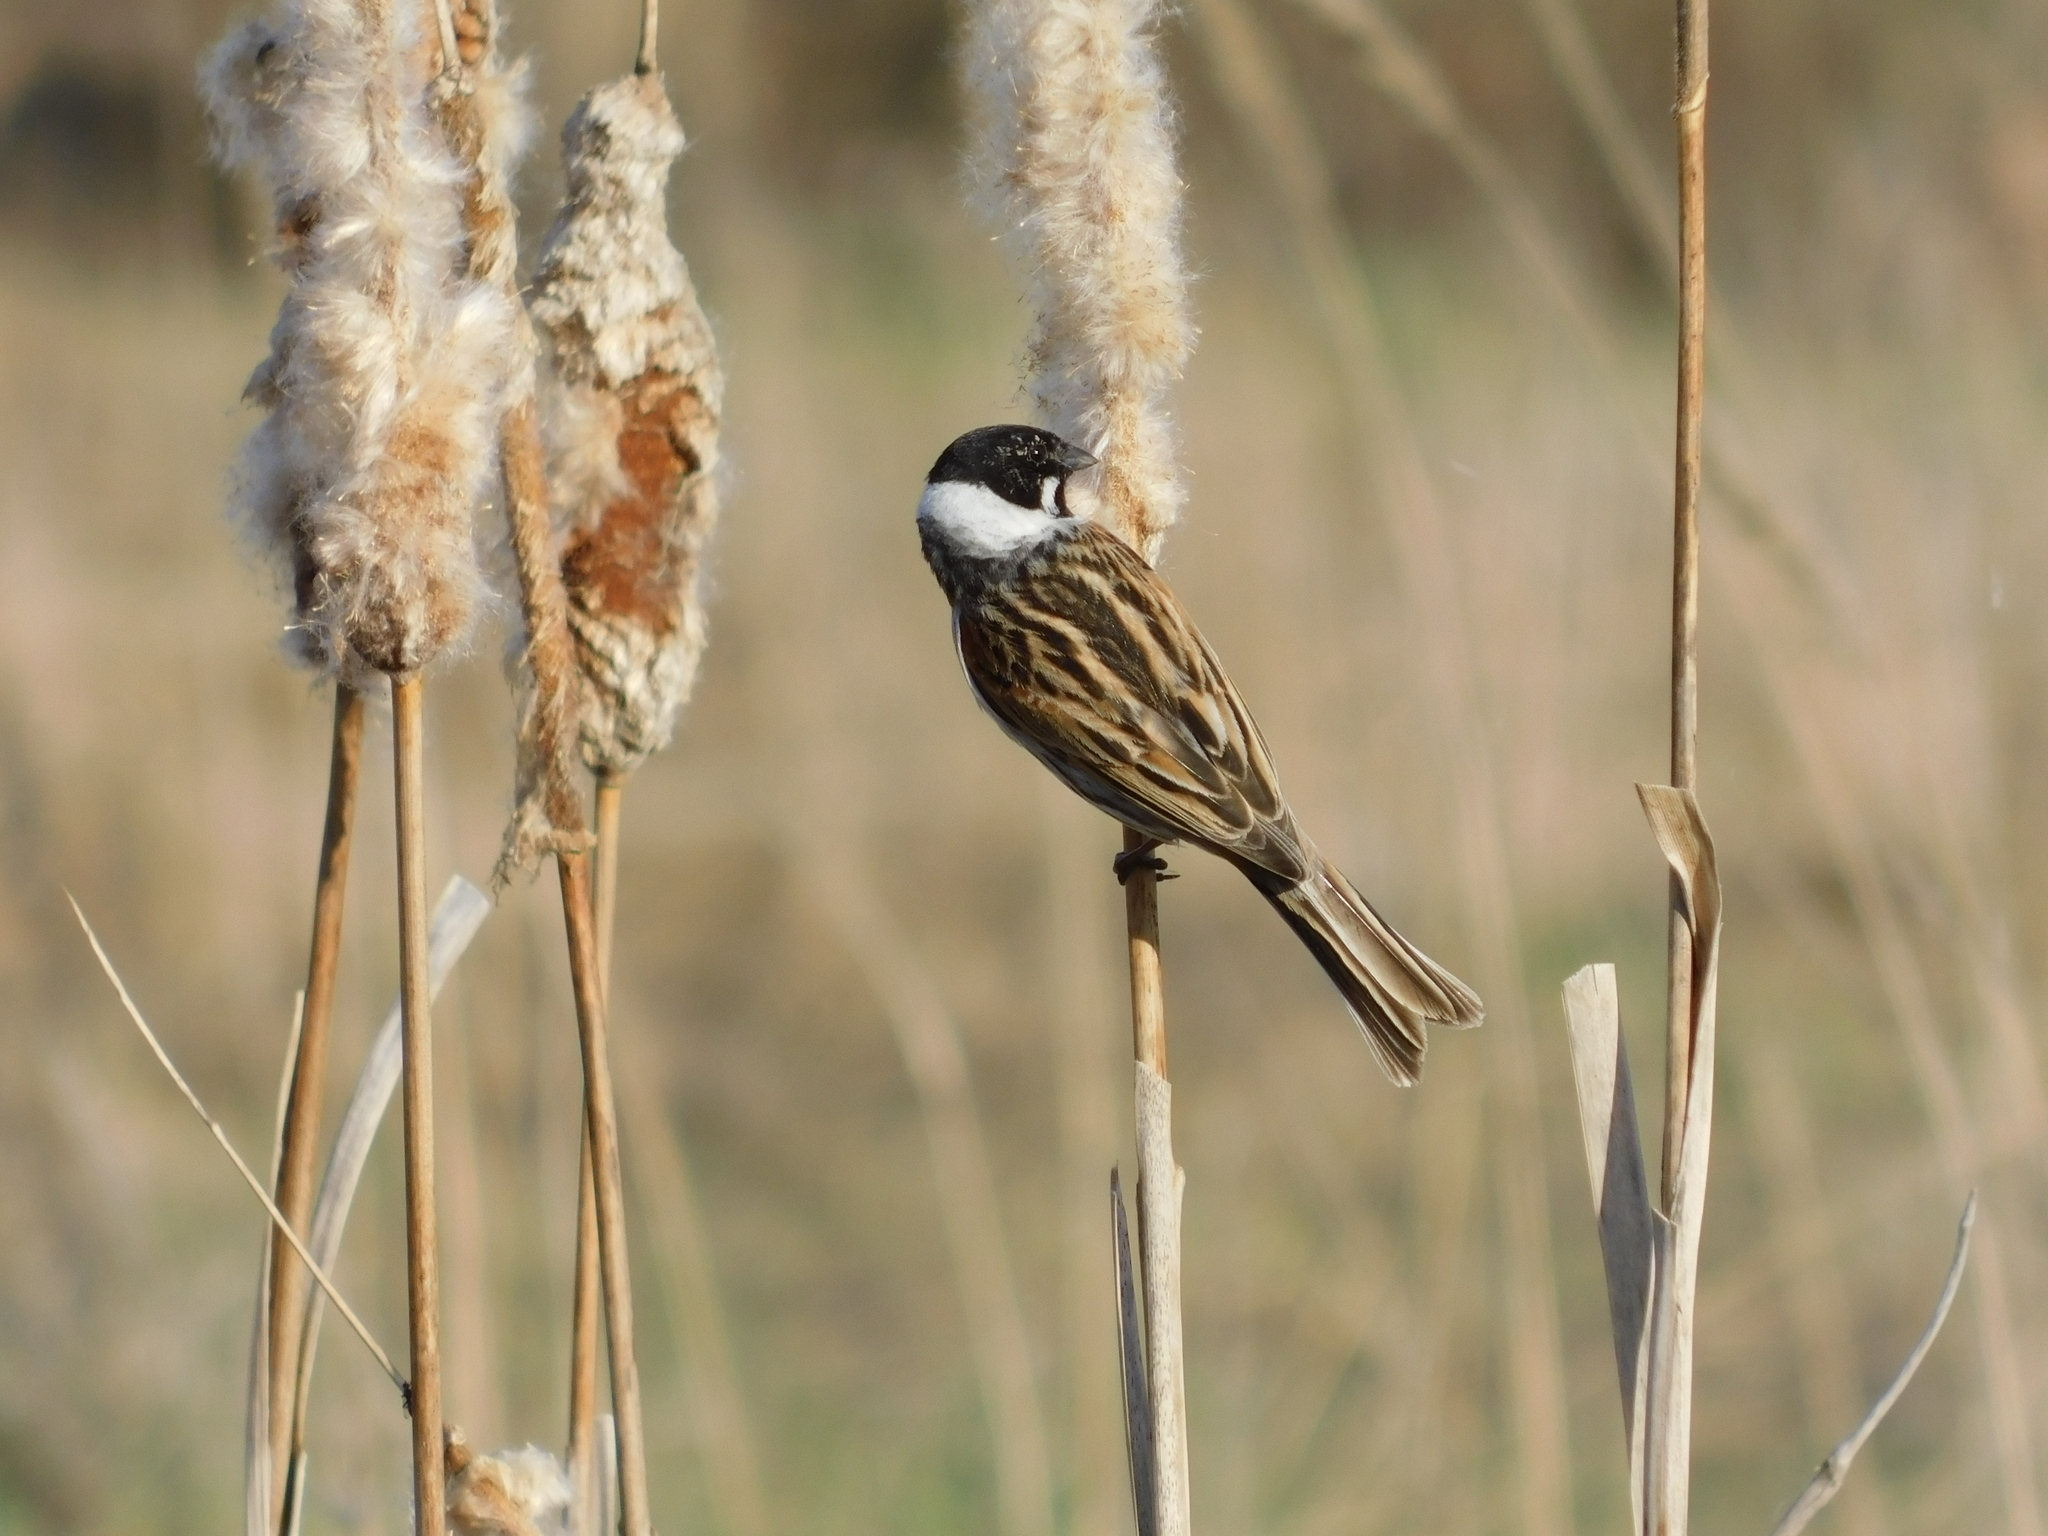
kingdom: Animalia
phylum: Chordata
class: Aves
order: Passeriformes
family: Emberizidae
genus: Emberiza
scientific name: Emberiza schoeniclus
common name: Reed bunting
